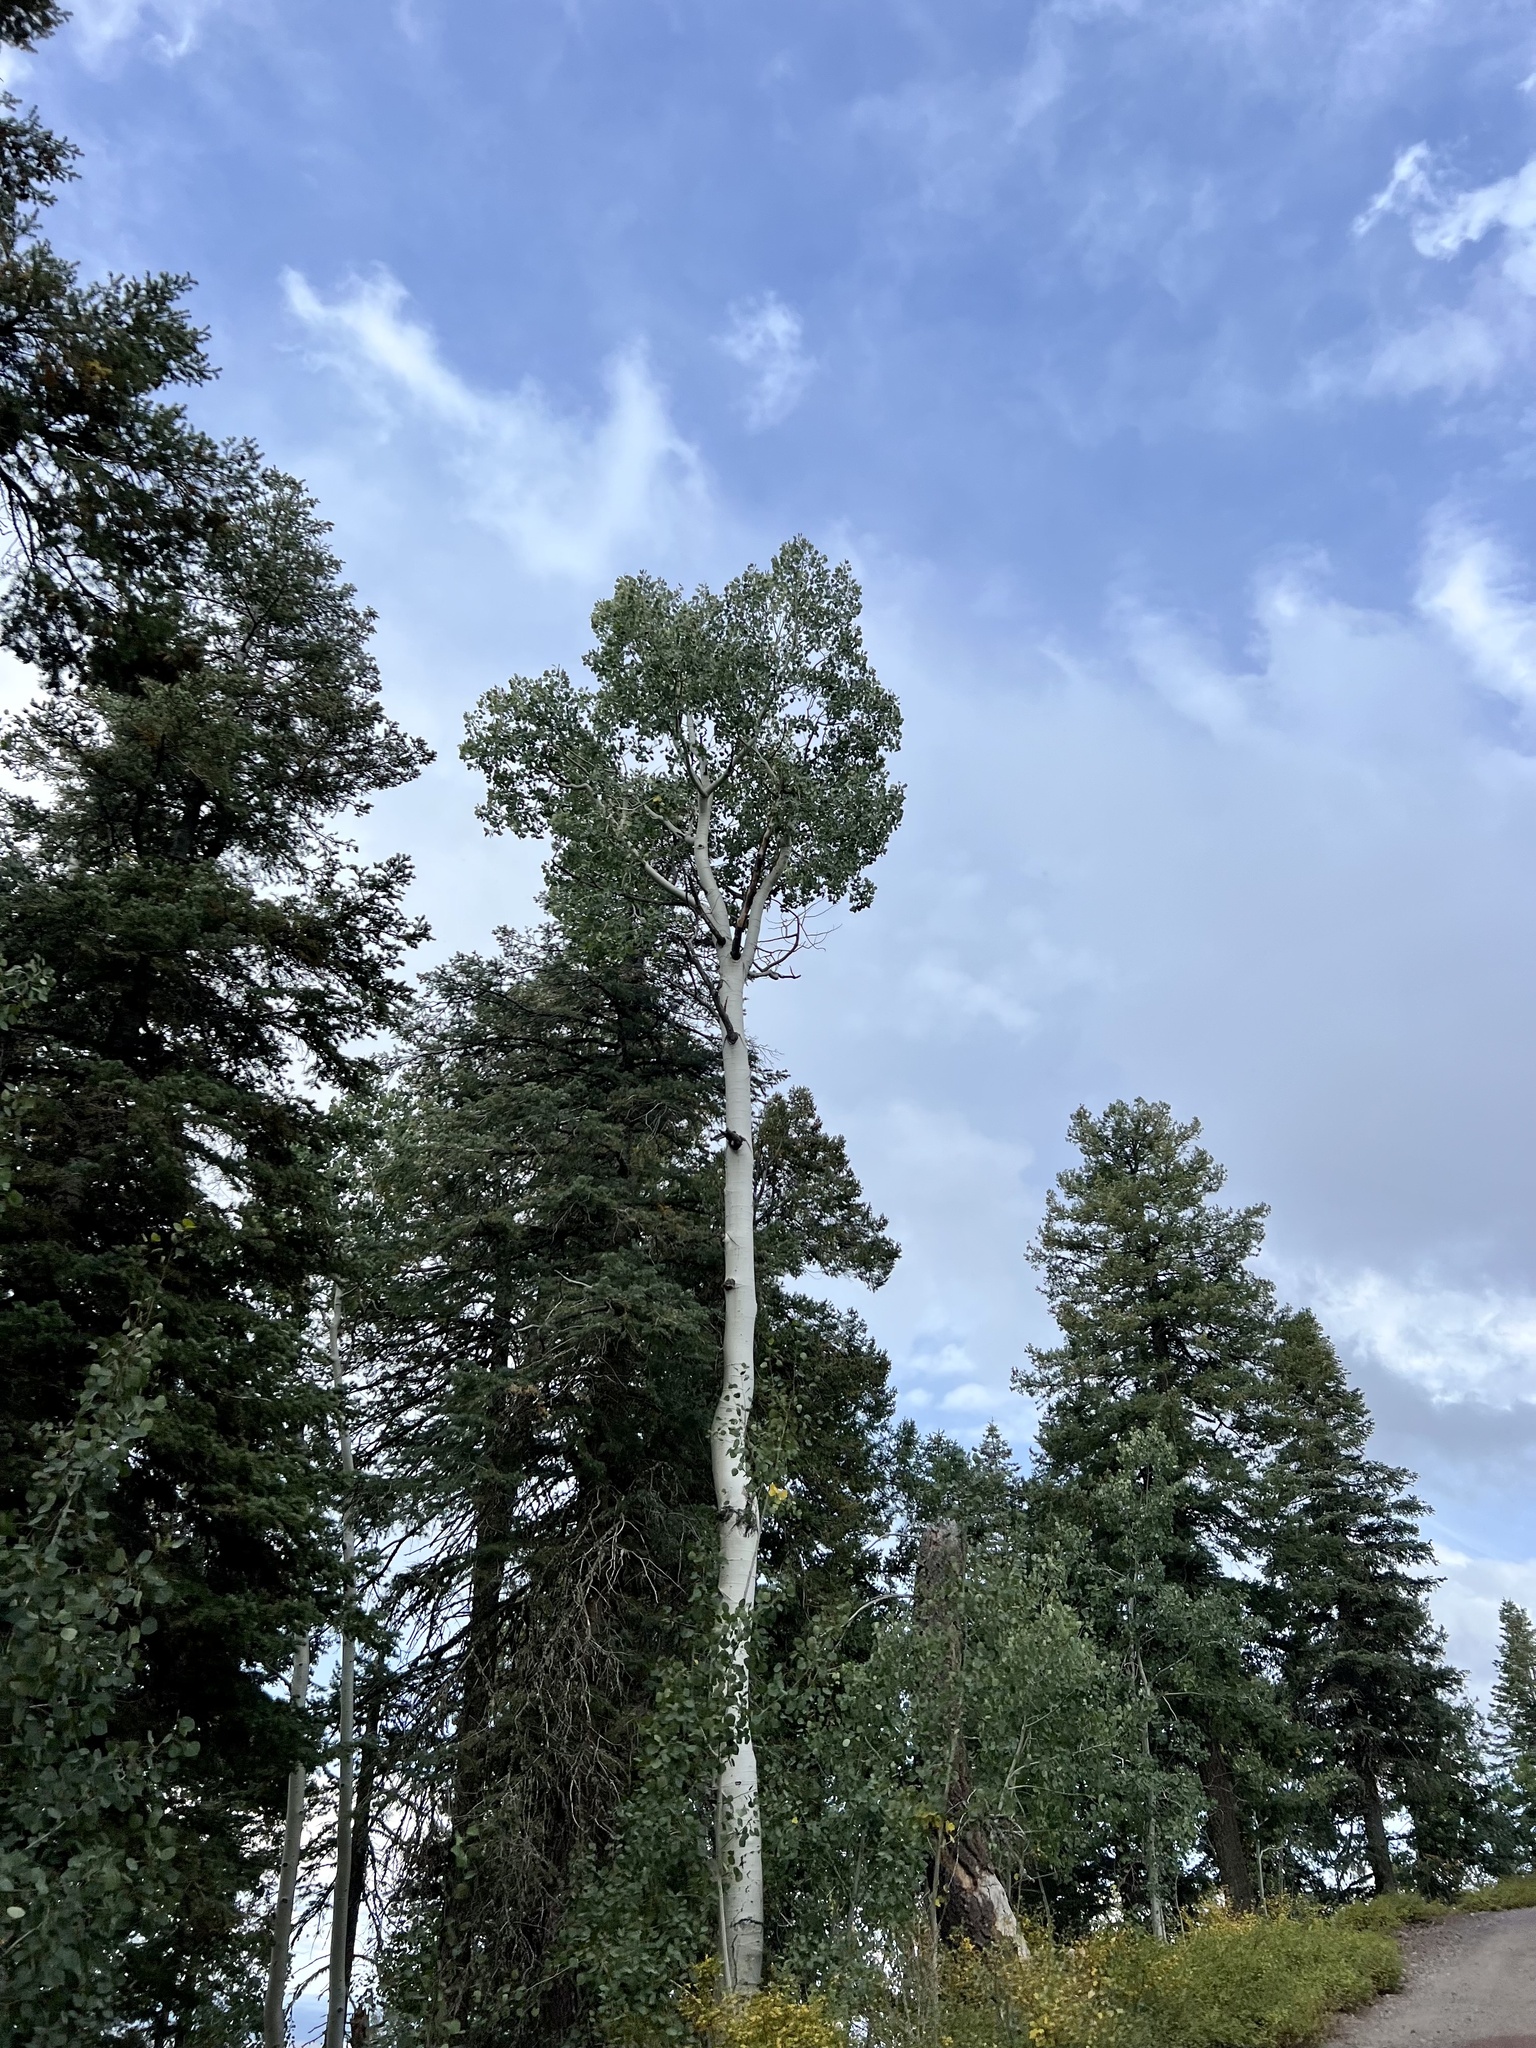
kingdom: Plantae
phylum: Tracheophyta
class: Magnoliopsida
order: Malpighiales
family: Salicaceae
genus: Populus
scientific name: Populus tremuloides
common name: Quaking aspen
